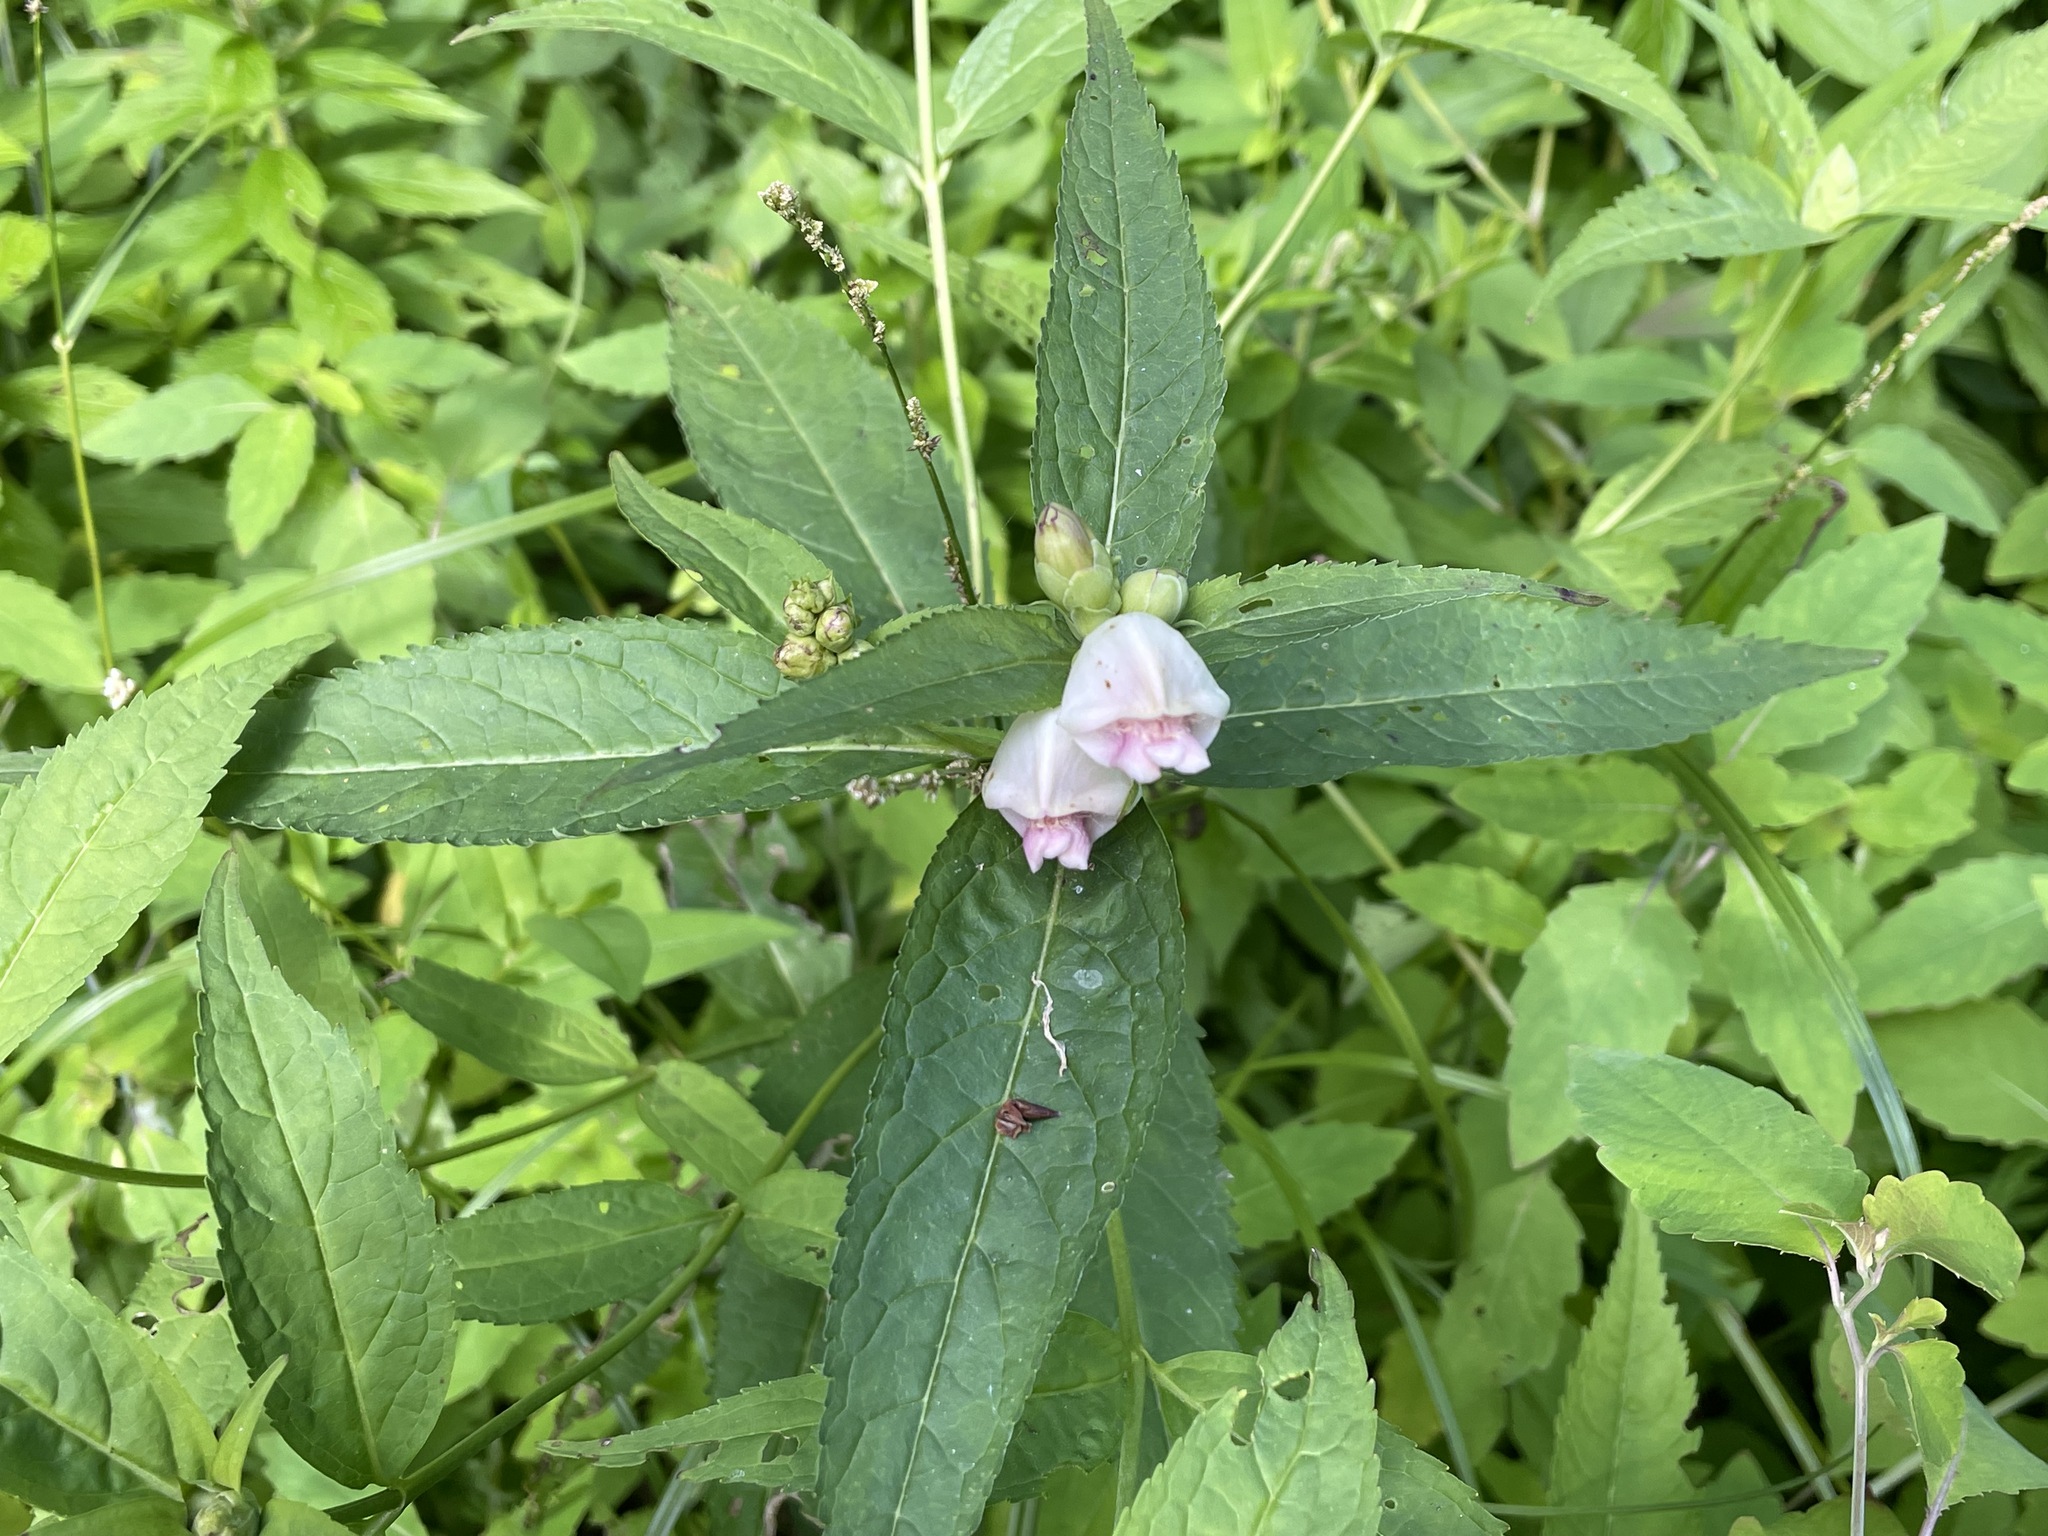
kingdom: Plantae
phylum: Tracheophyta
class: Magnoliopsida
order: Lamiales
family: Plantaginaceae
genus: Chelone
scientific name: Chelone glabra
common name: Snakehead
